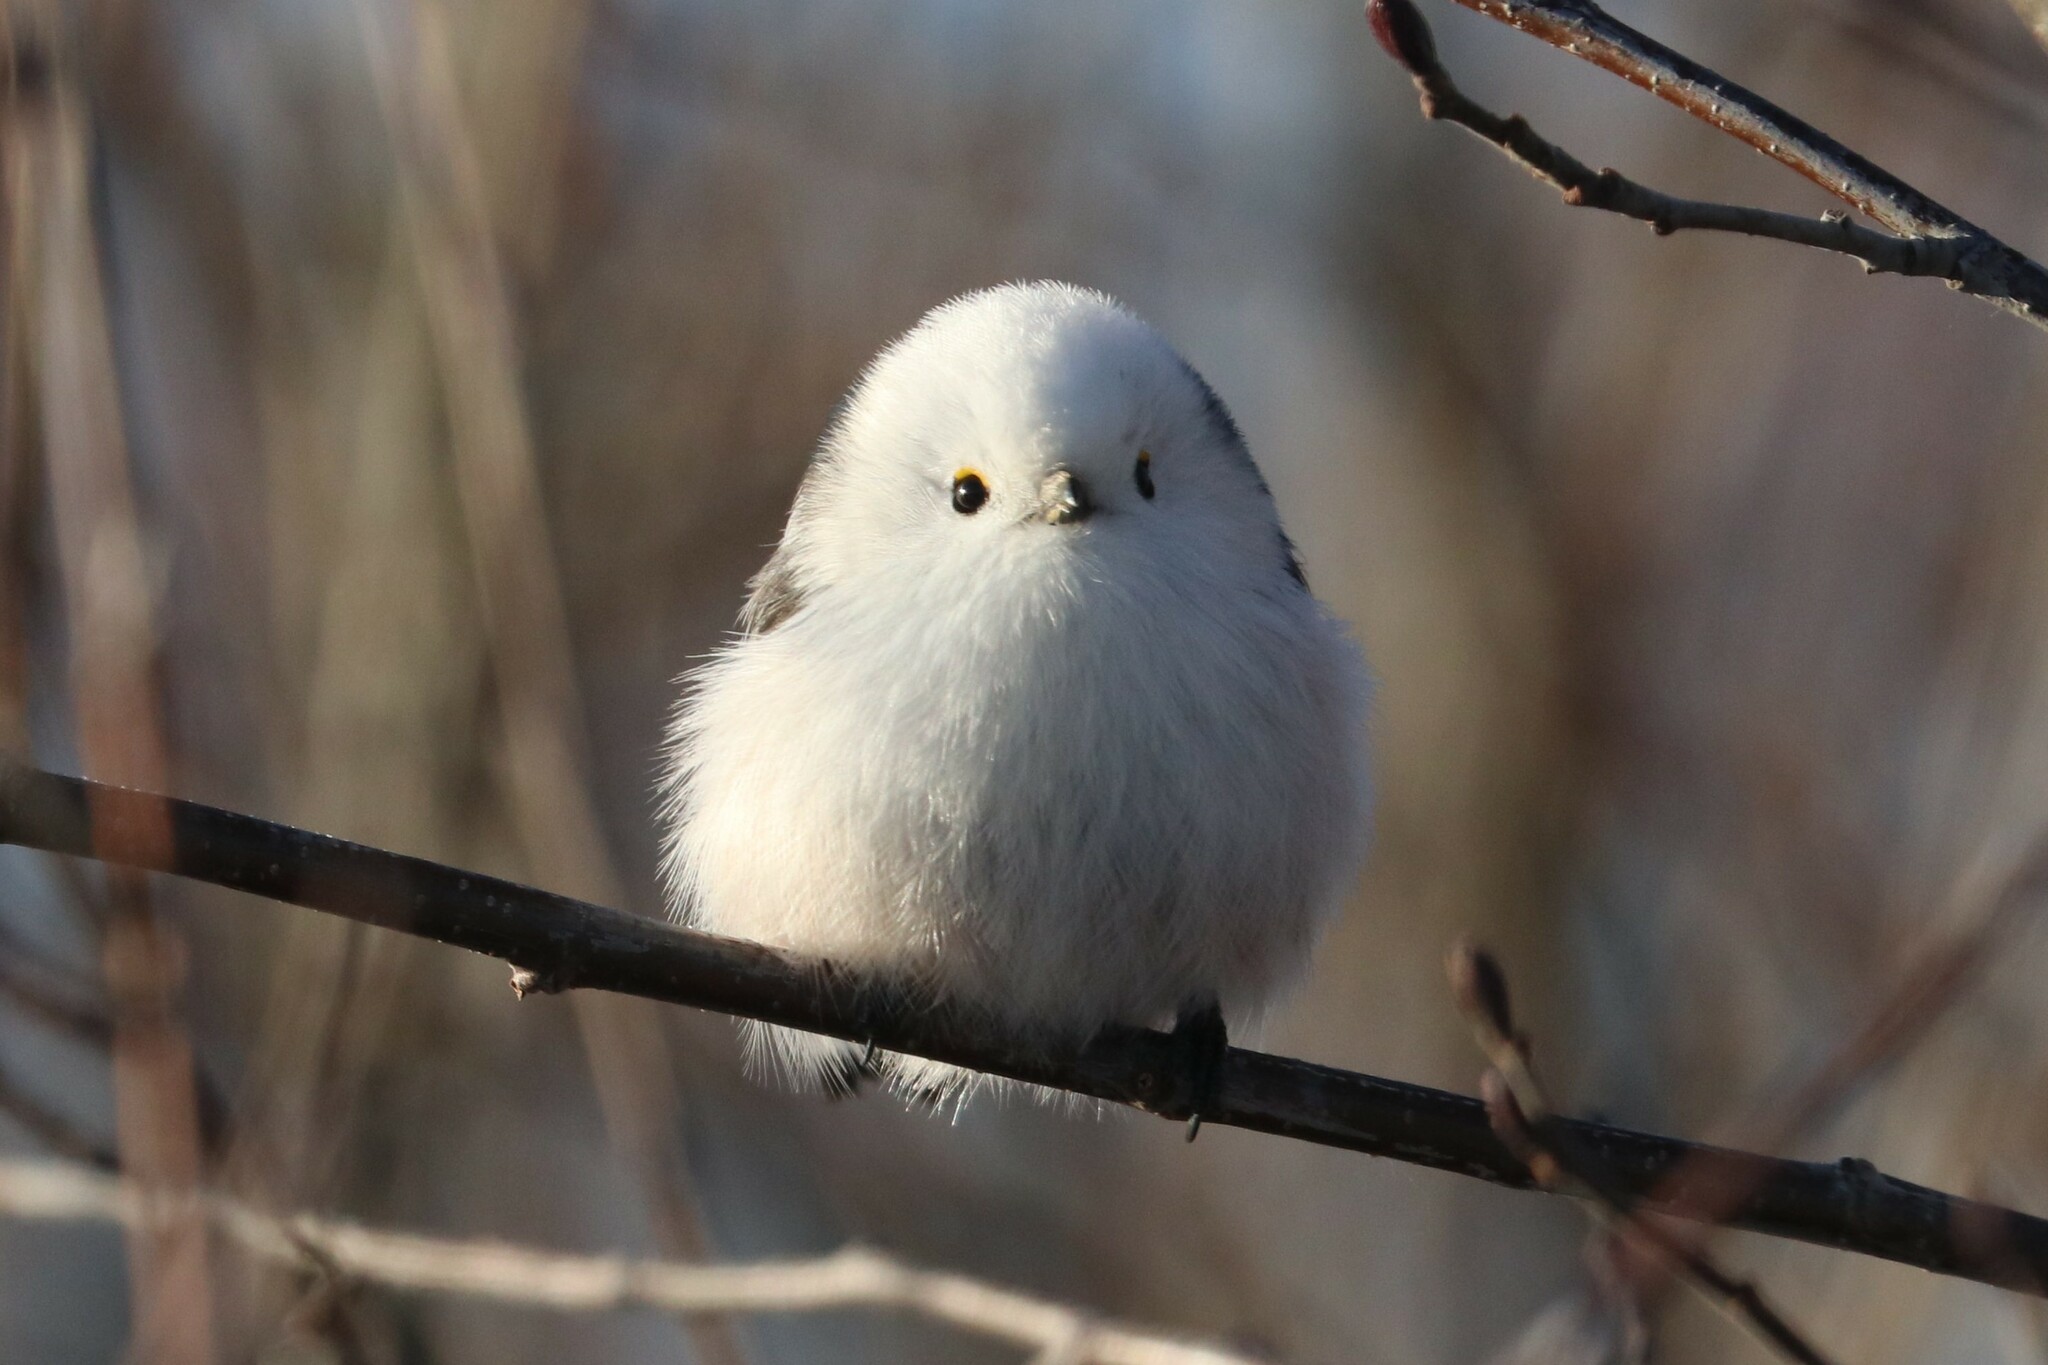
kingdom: Animalia
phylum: Chordata
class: Aves
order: Passeriformes
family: Aegithalidae
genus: Aegithalos
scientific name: Aegithalos caudatus
